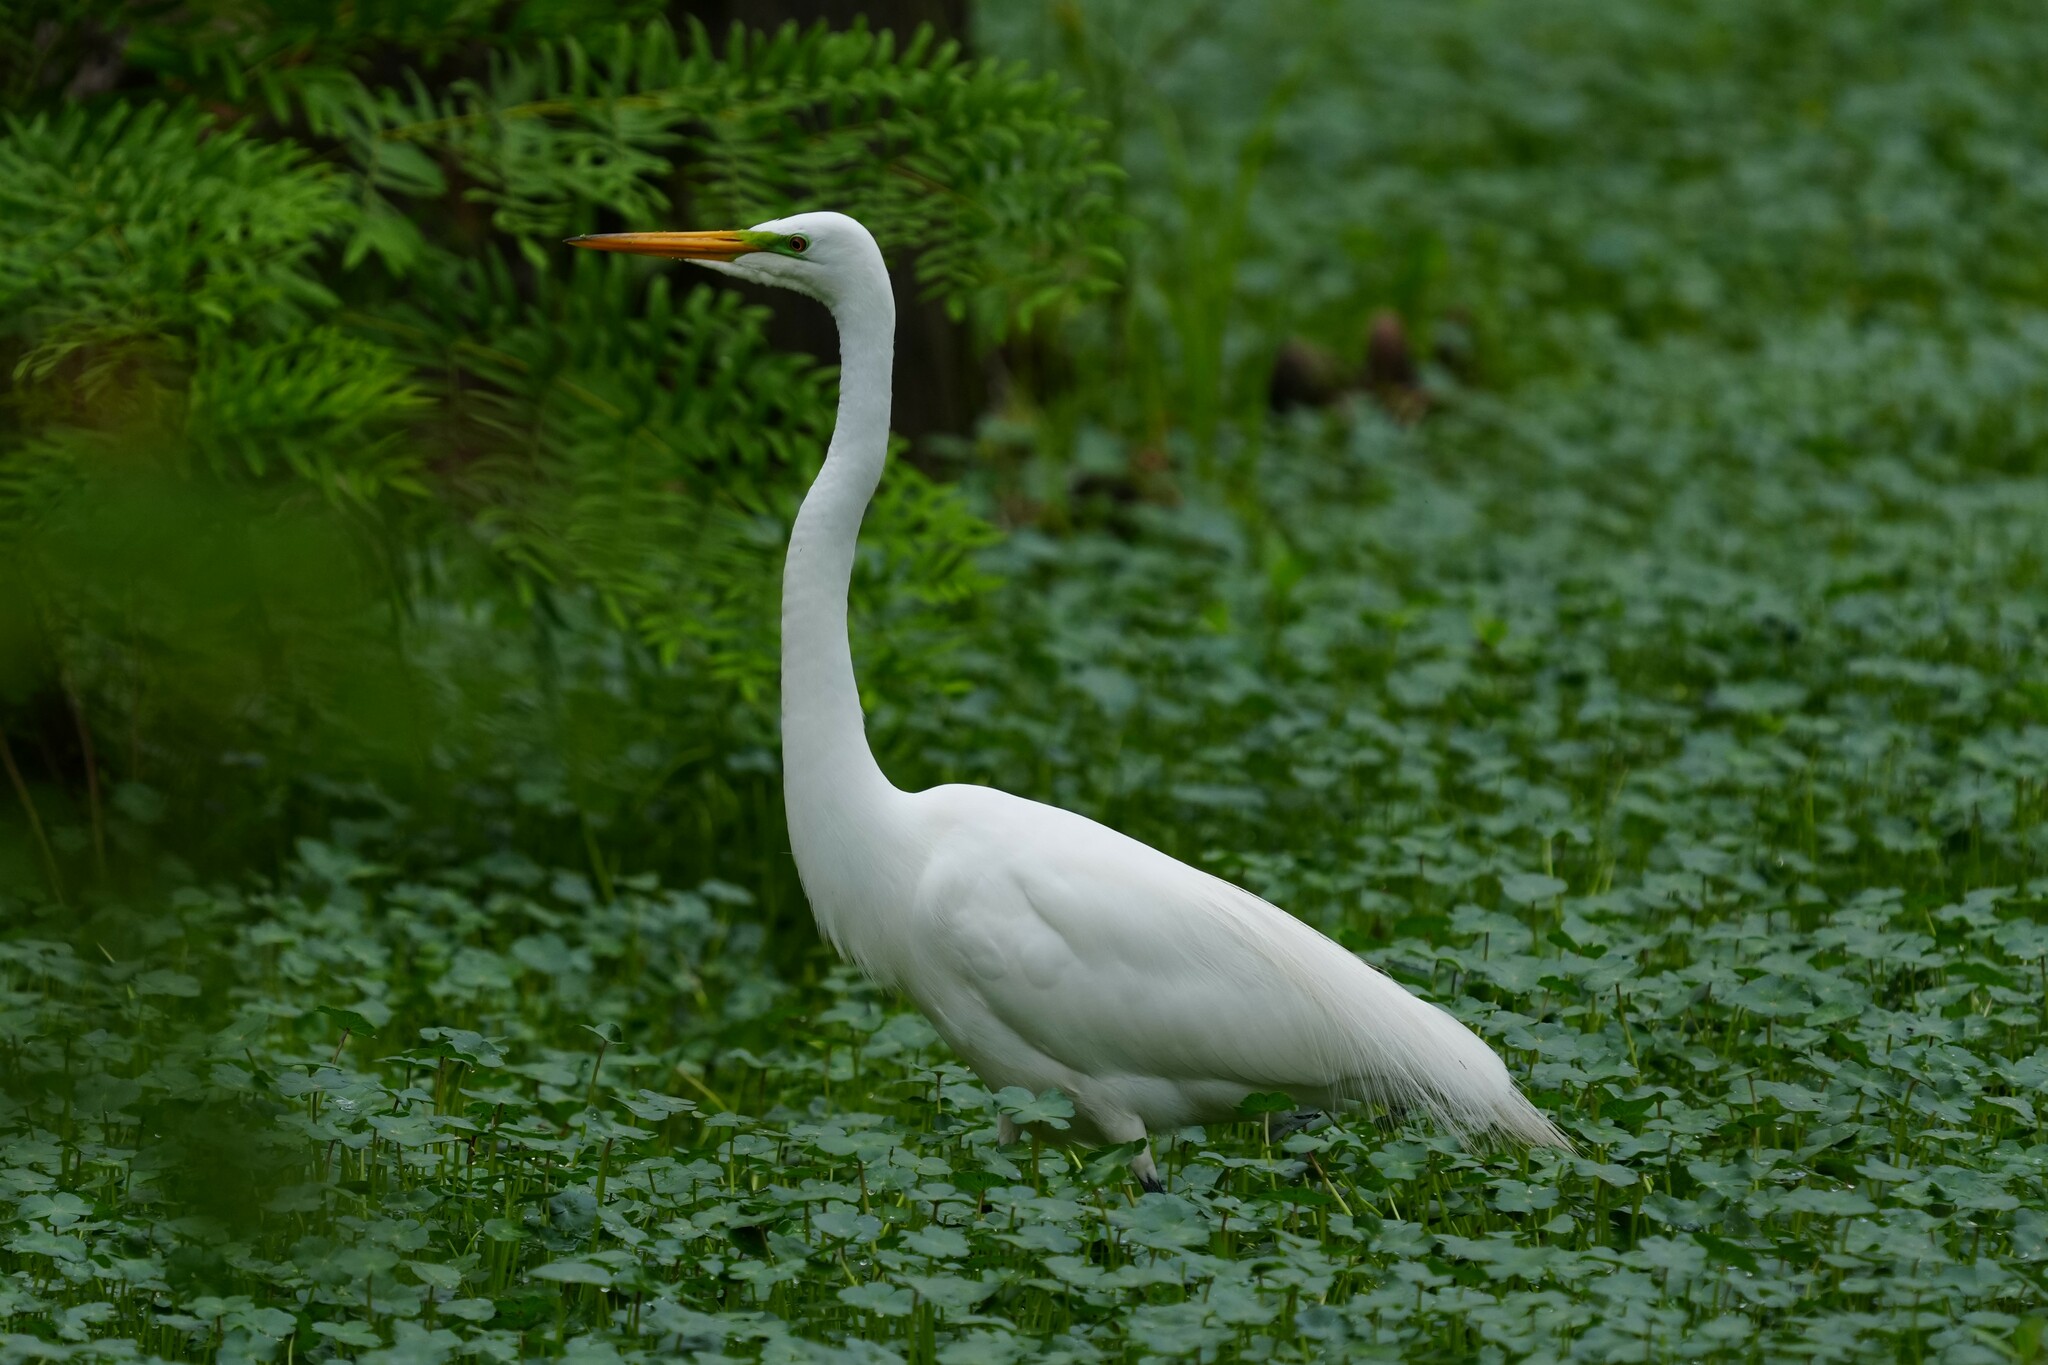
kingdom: Animalia
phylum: Chordata
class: Aves
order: Pelecaniformes
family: Ardeidae
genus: Ardea
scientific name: Ardea alba
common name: Great egret
